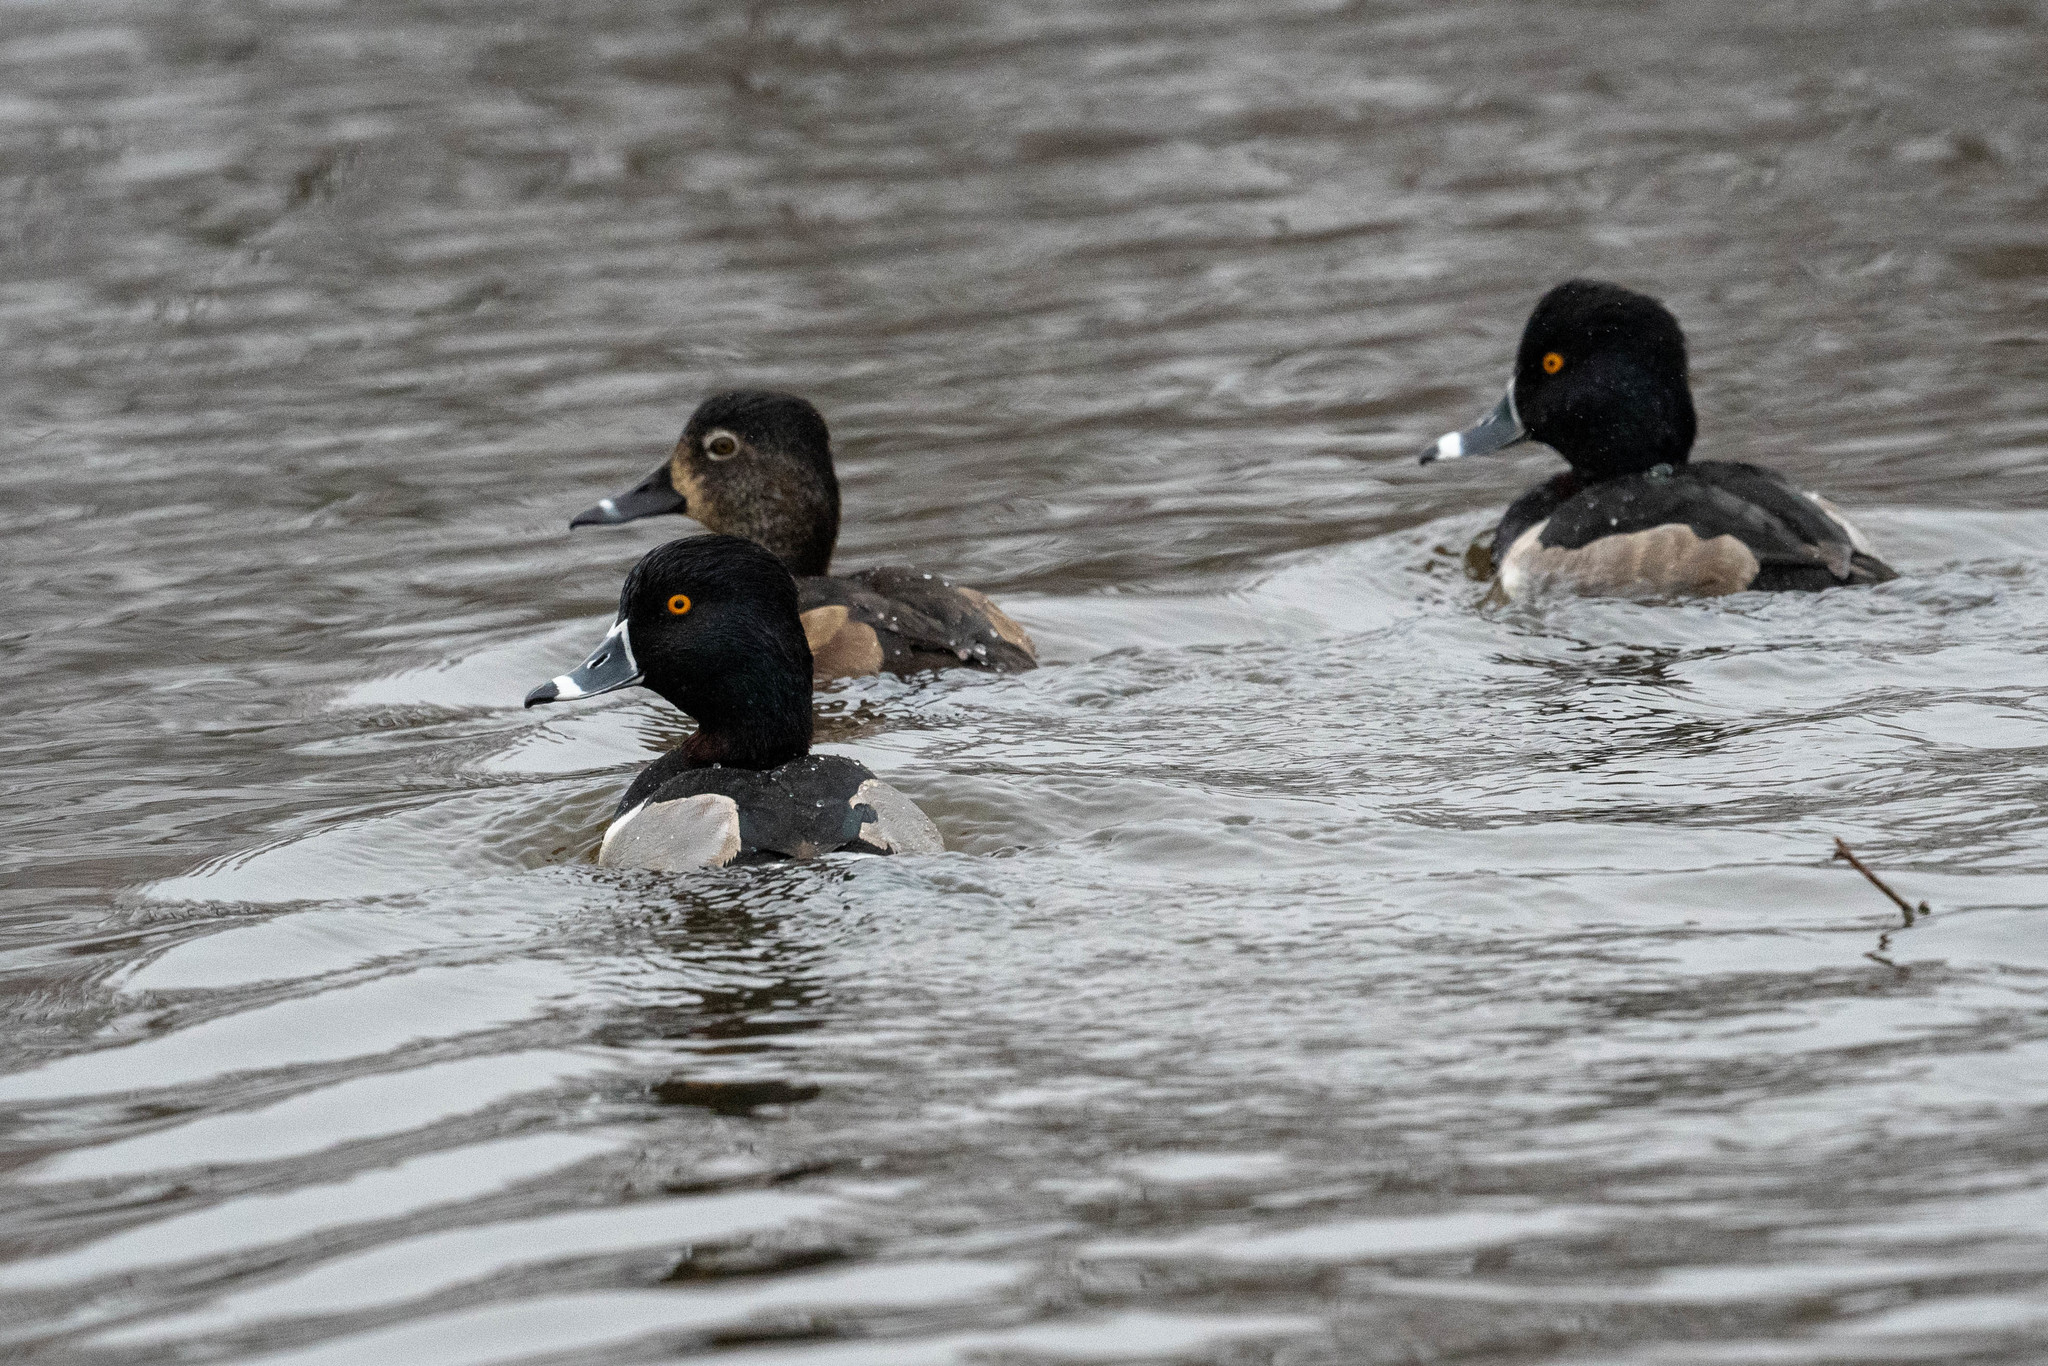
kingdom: Animalia
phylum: Chordata
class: Aves
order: Anseriformes
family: Anatidae
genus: Aythya
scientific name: Aythya collaris
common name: Ring-necked duck
